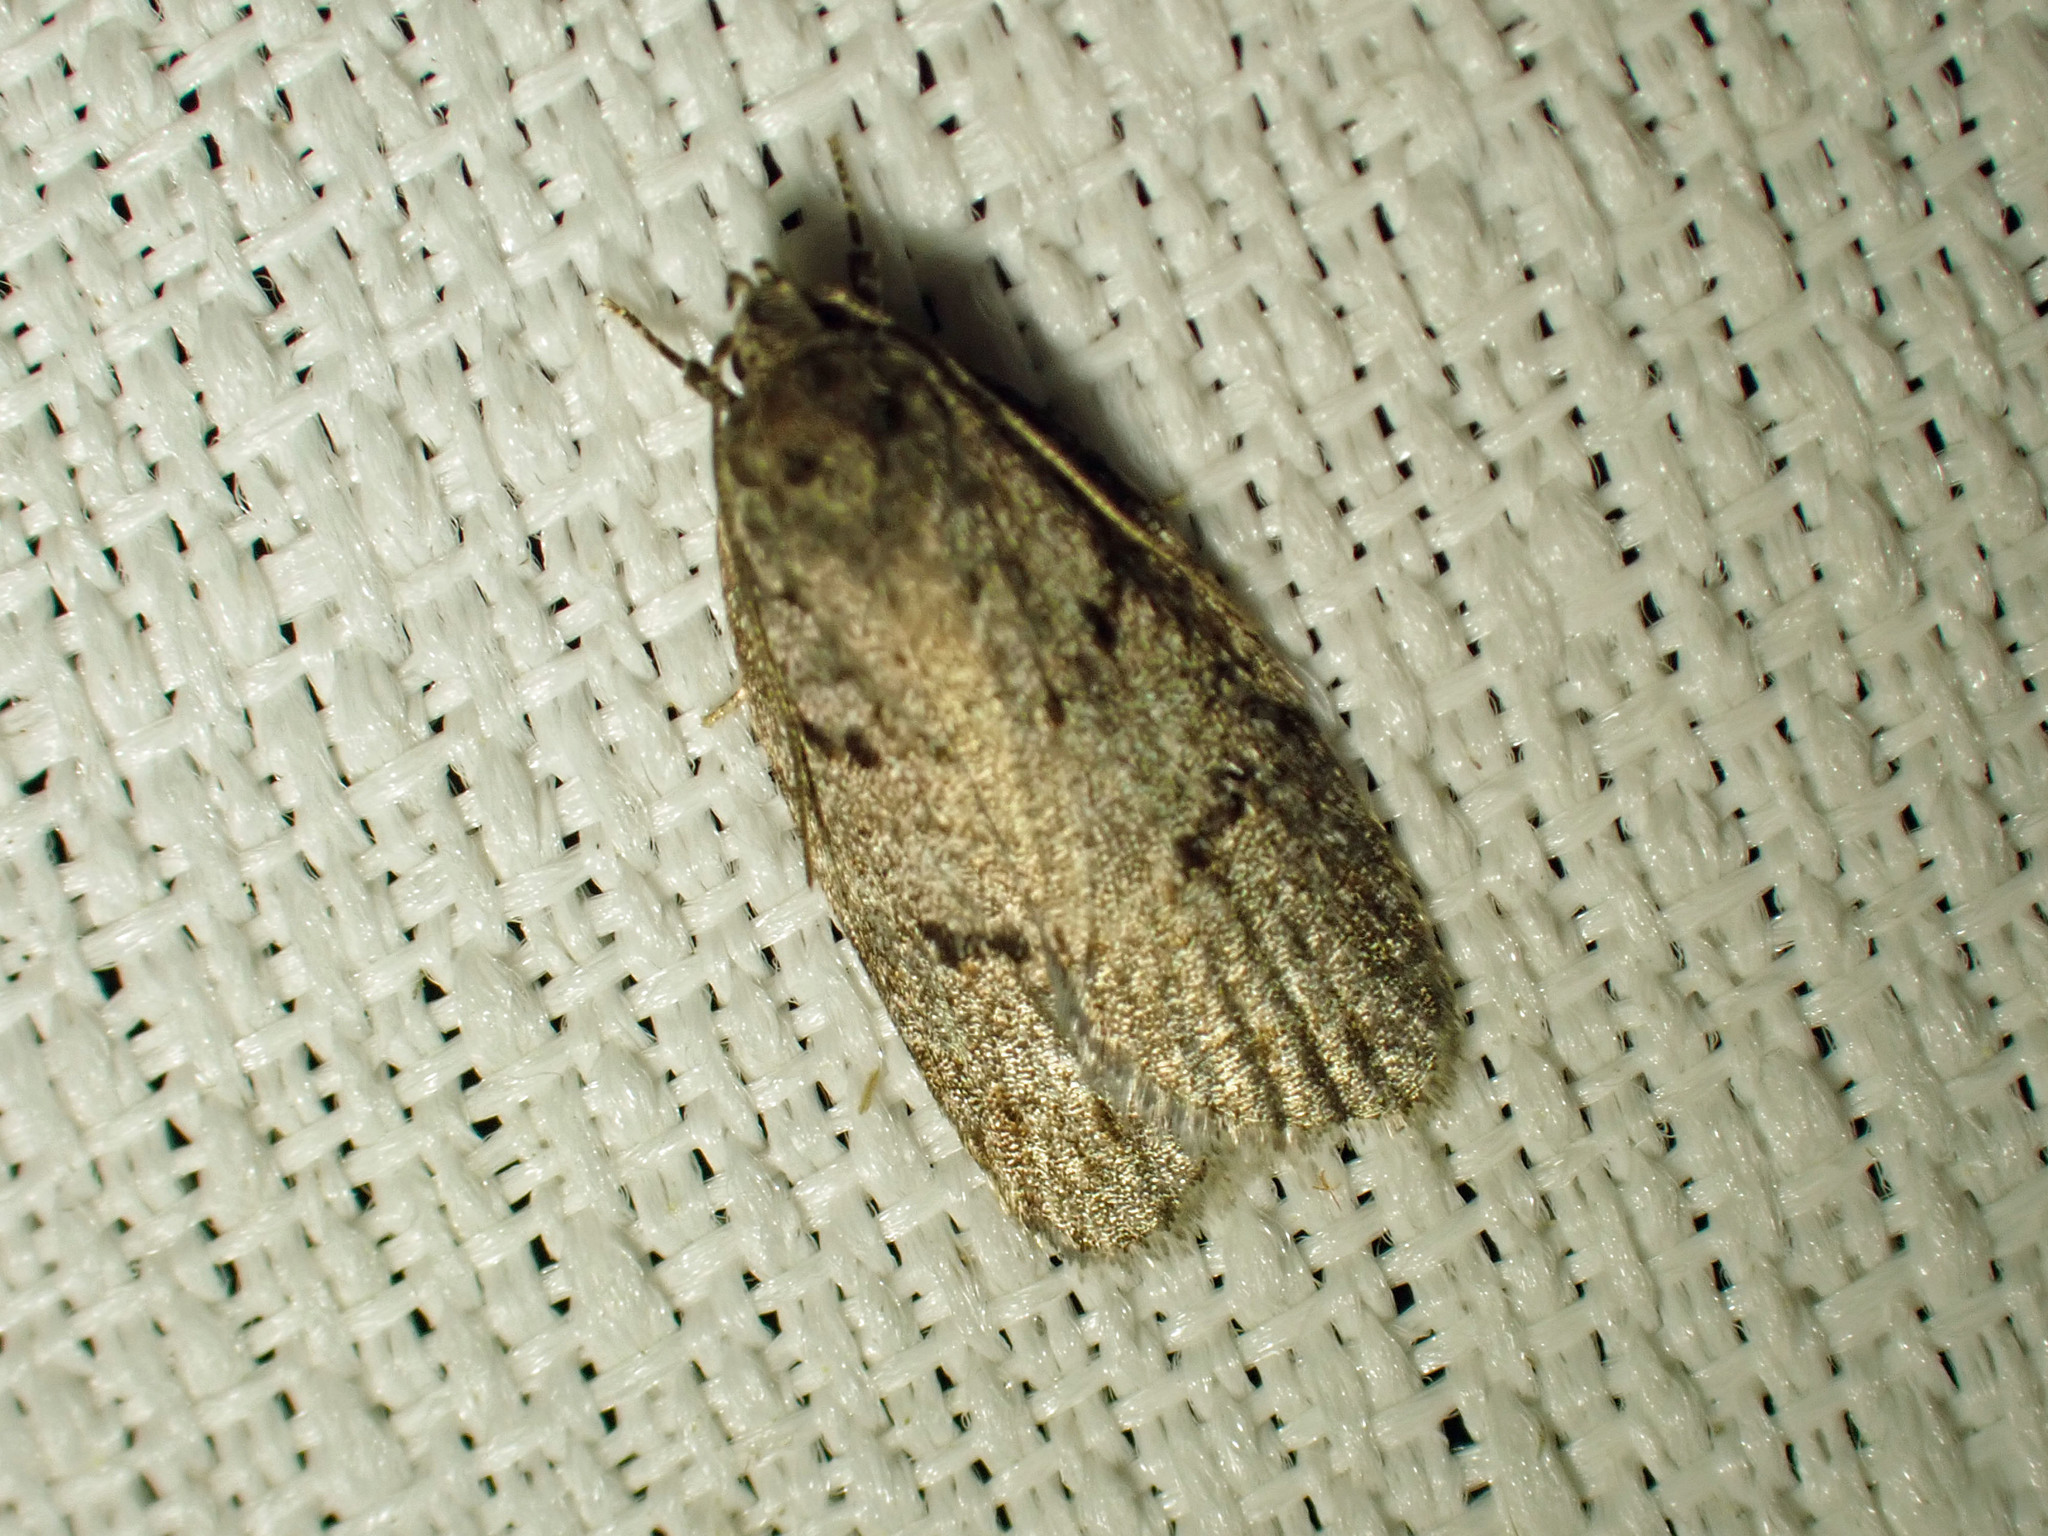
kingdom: Animalia
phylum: Arthropoda
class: Insecta
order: Lepidoptera
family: Depressariidae
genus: Bibarrambla
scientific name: Bibarrambla allenella
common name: Bog bibarrambla moth
